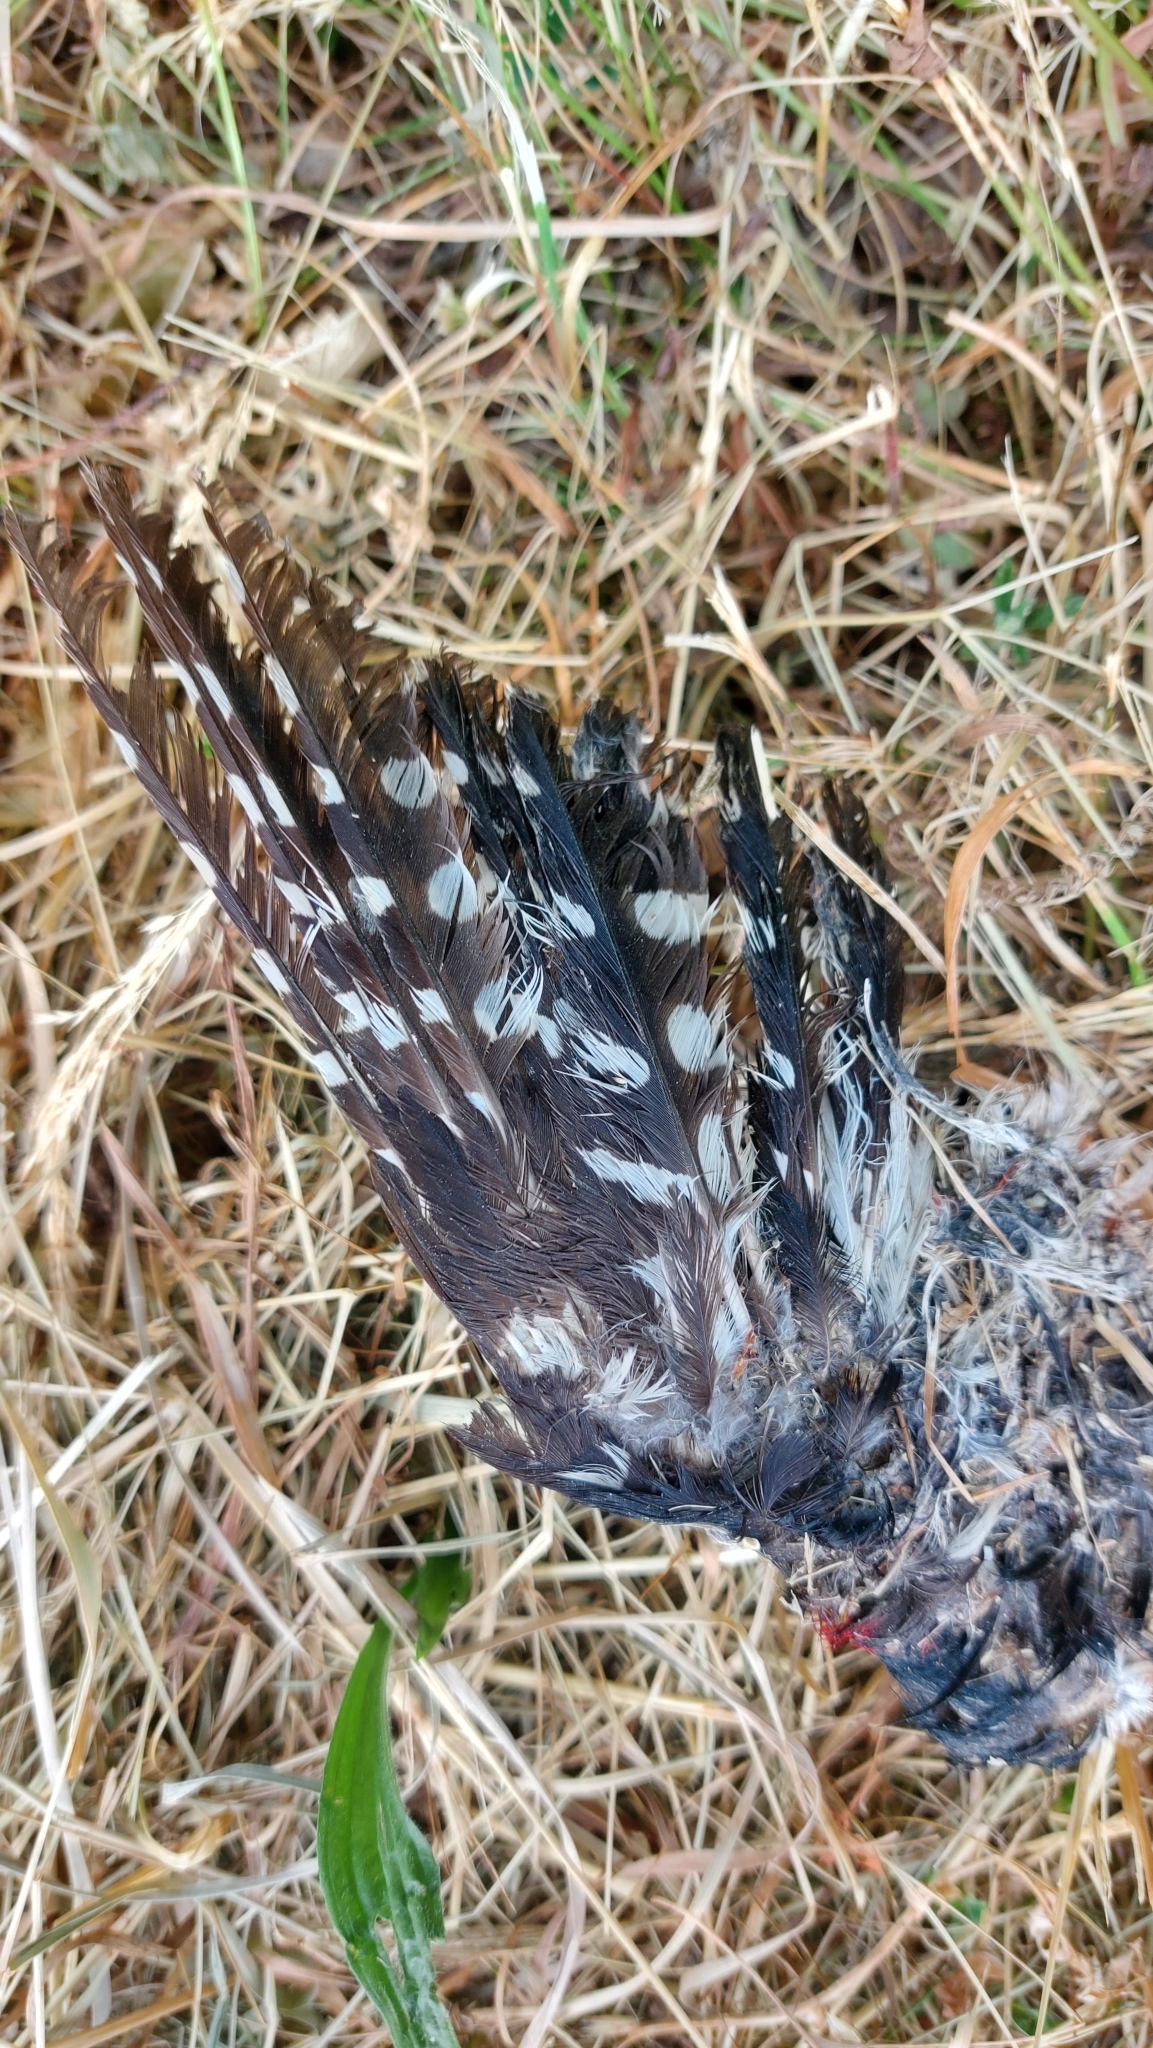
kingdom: Animalia
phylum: Chordata
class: Aves
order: Piciformes
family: Picidae
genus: Dendrocopos
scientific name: Dendrocopos major
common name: Great spotted woodpecker
